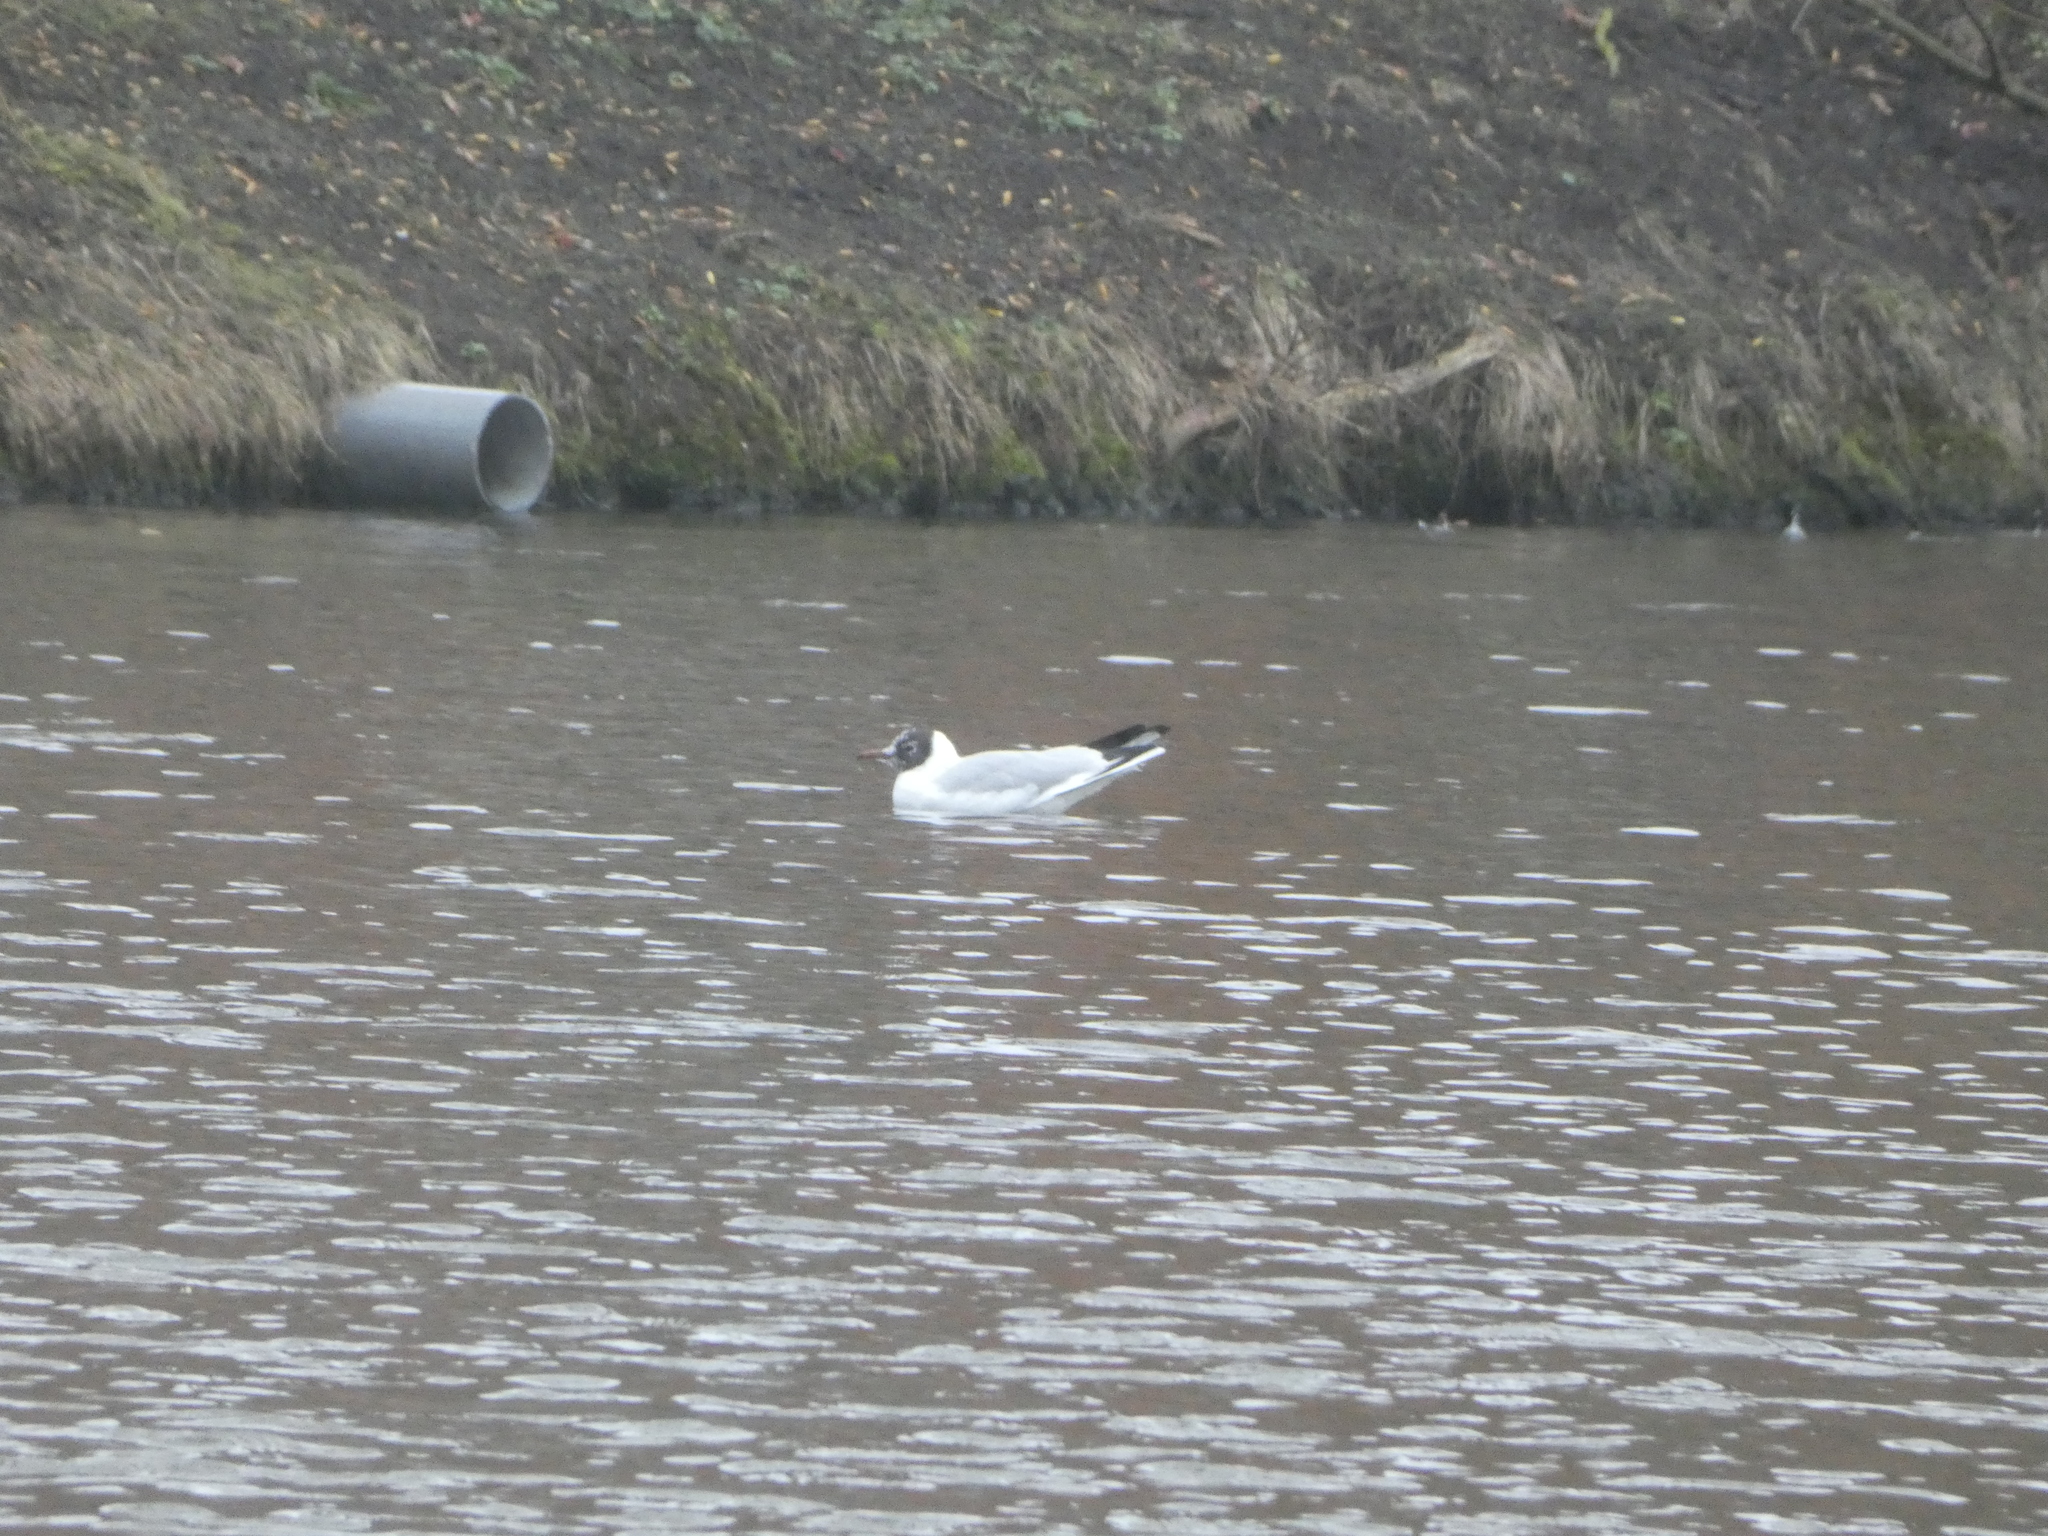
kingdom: Animalia
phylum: Chordata
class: Aves
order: Charadriiformes
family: Laridae
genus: Chroicocephalus
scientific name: Chroicocephalus ridibundus
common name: Black-headed gull
